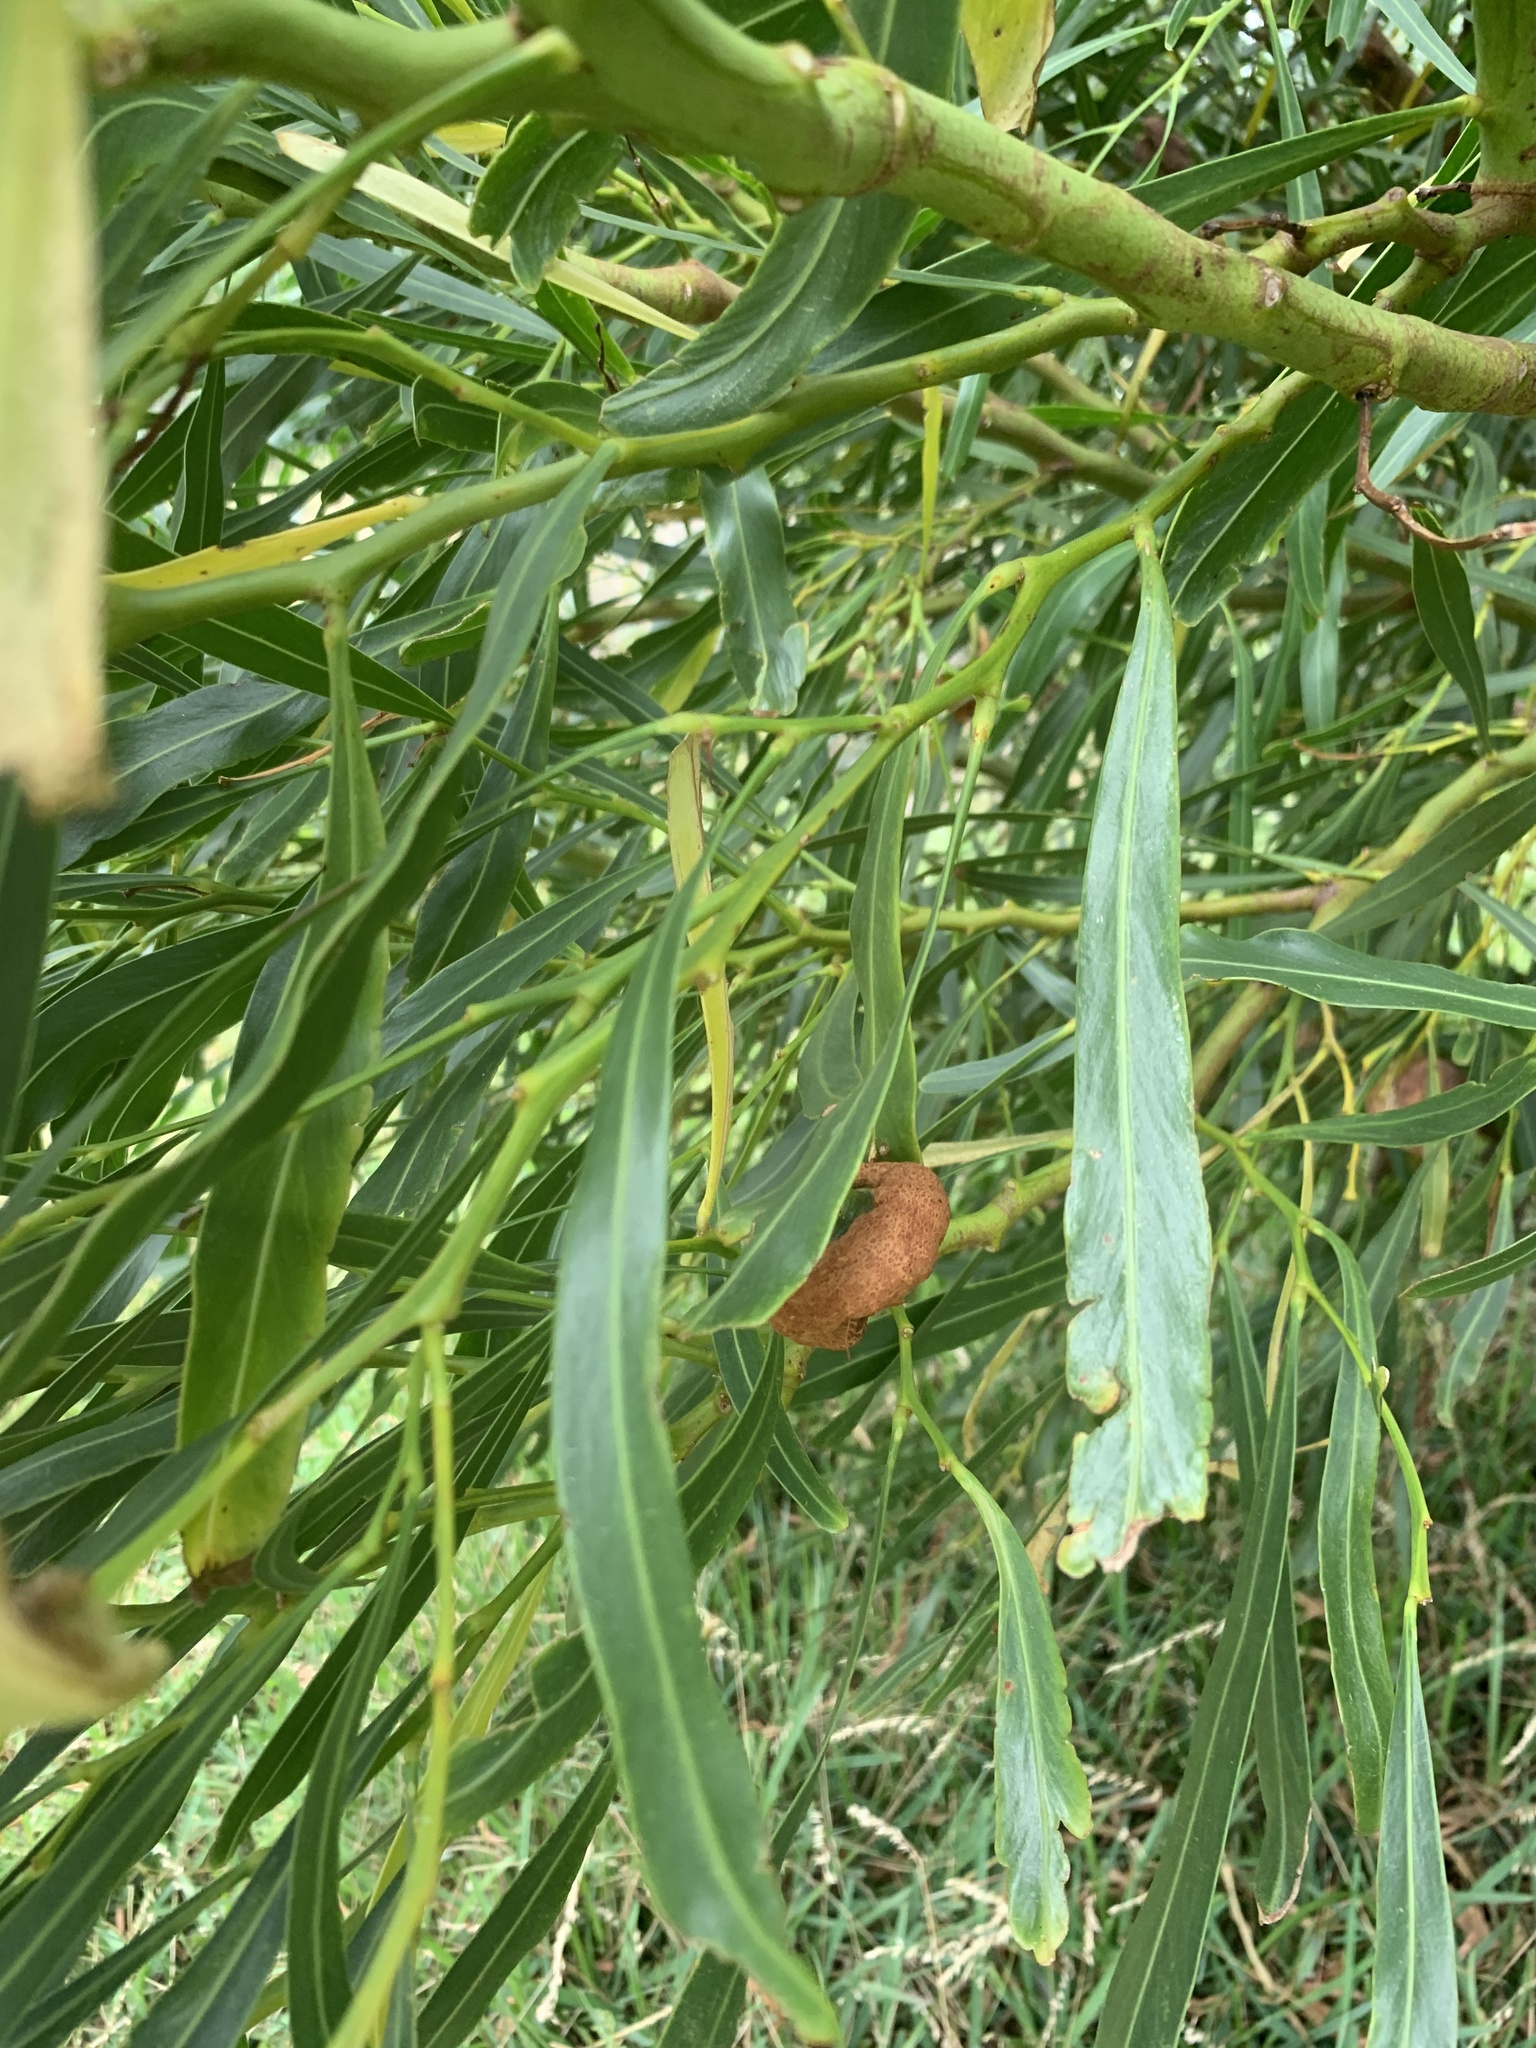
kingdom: Plantae
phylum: Tracheophyta
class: Magnoliopsida
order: Fabales
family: Fabaceae
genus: Acacia
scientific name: Acacia saligna
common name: Orange wattle
